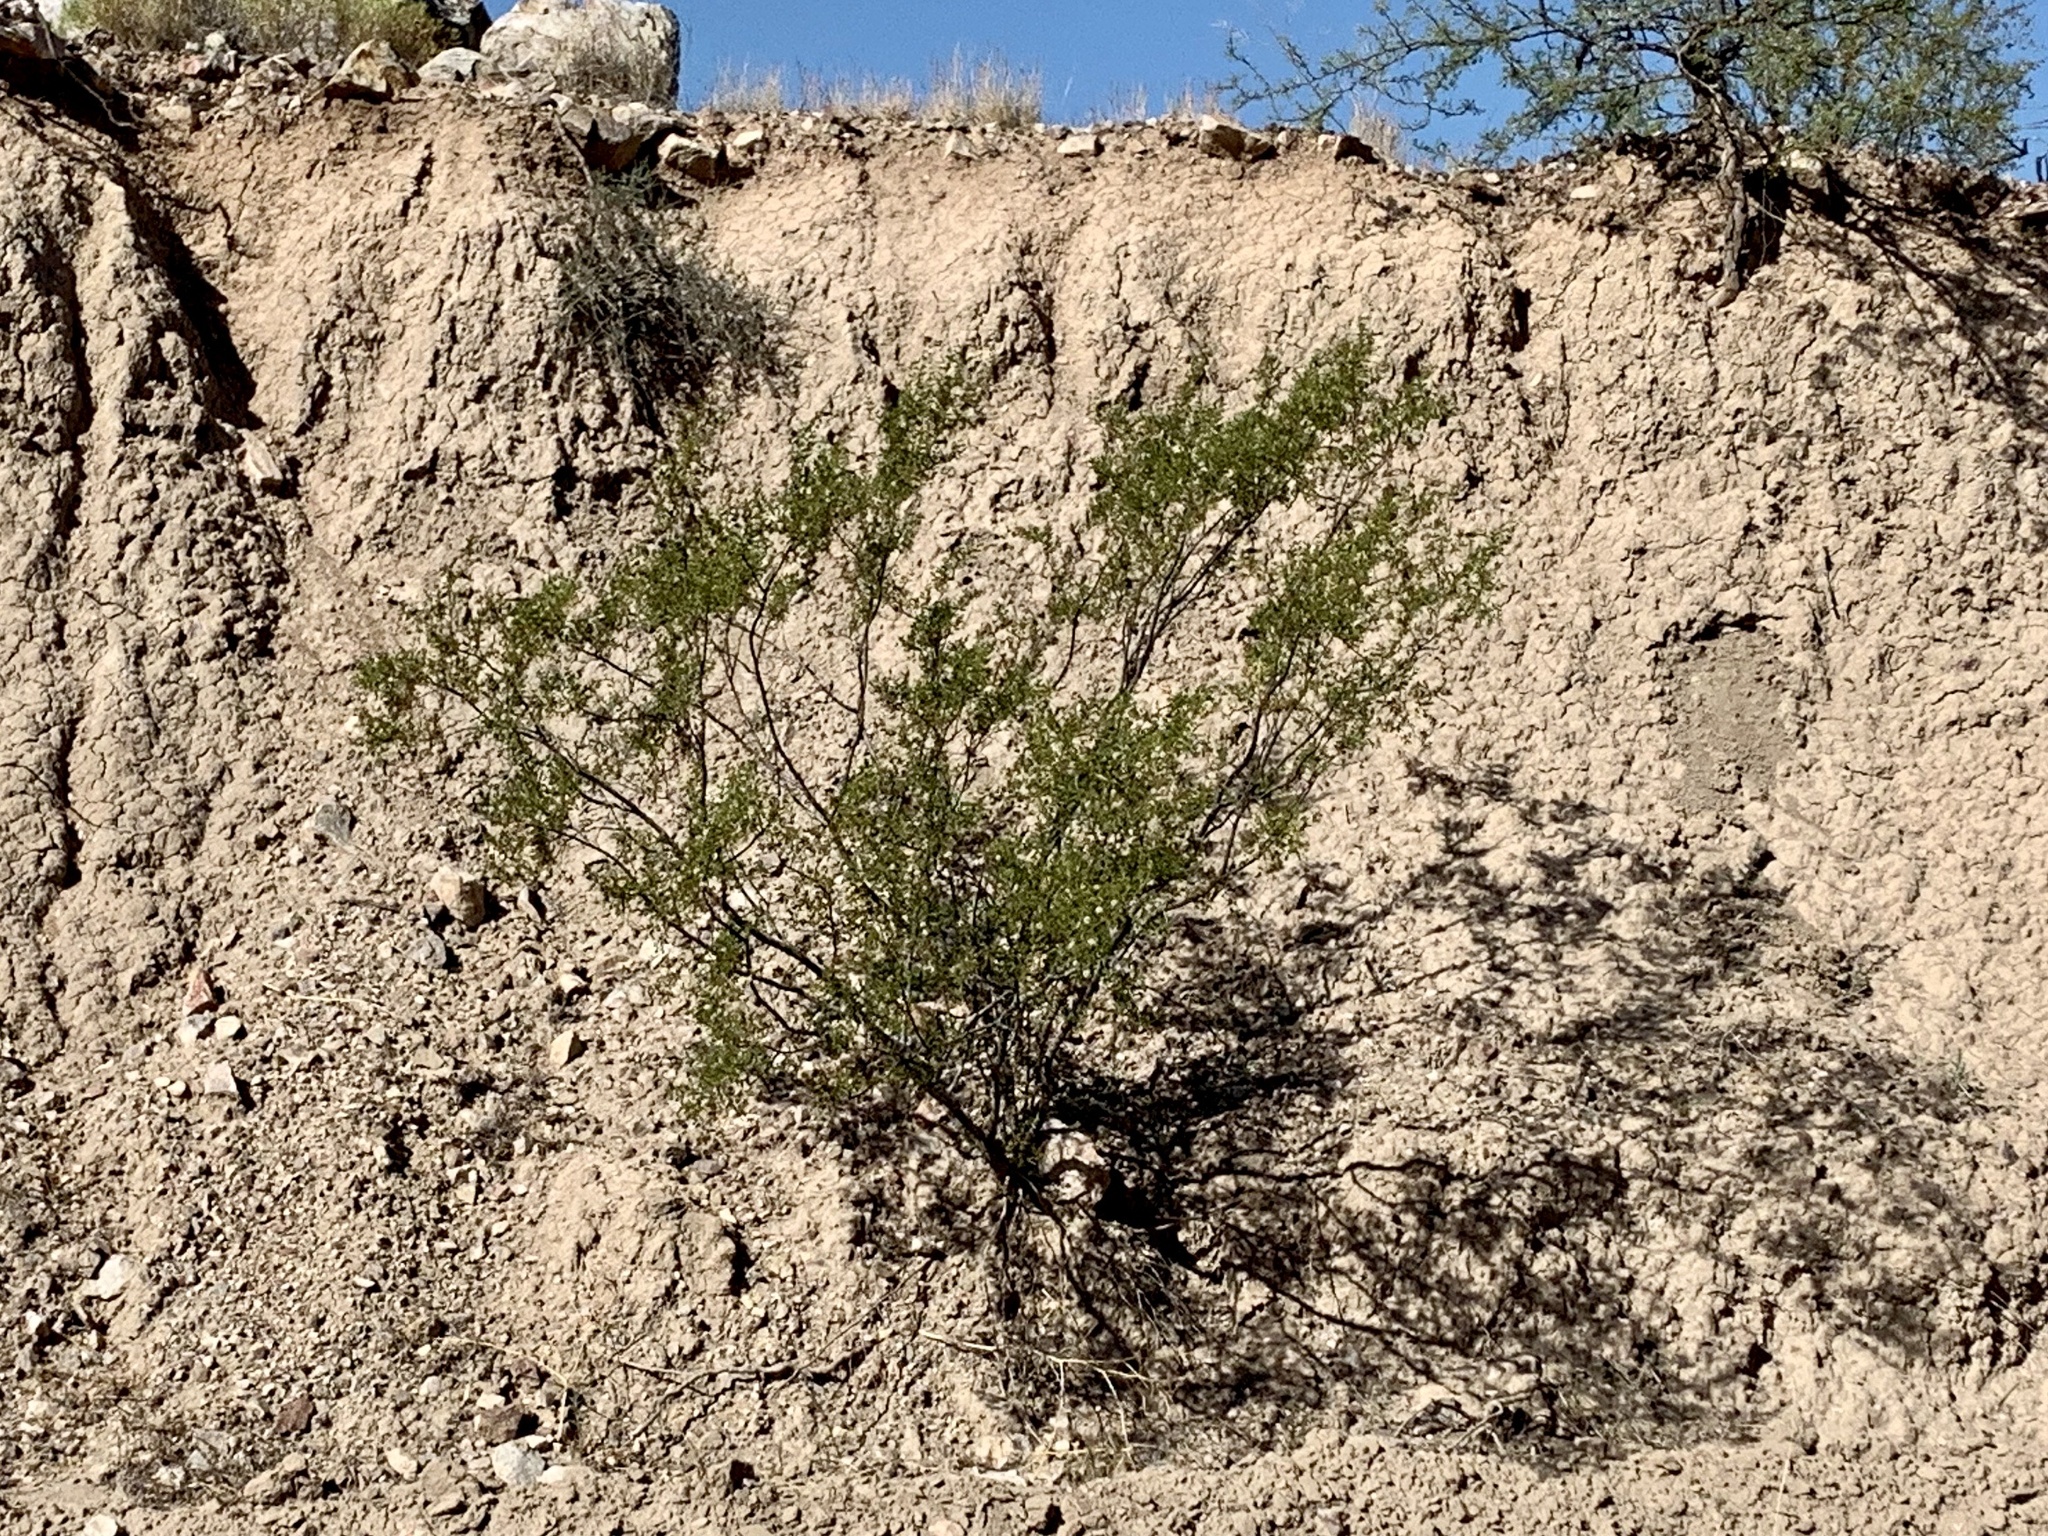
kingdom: Plantae
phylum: Tracheophyta
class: Magnoliopsida
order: Zygophyllales
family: Zygophyllaceae
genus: Larrea
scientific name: Larrea tridentata
